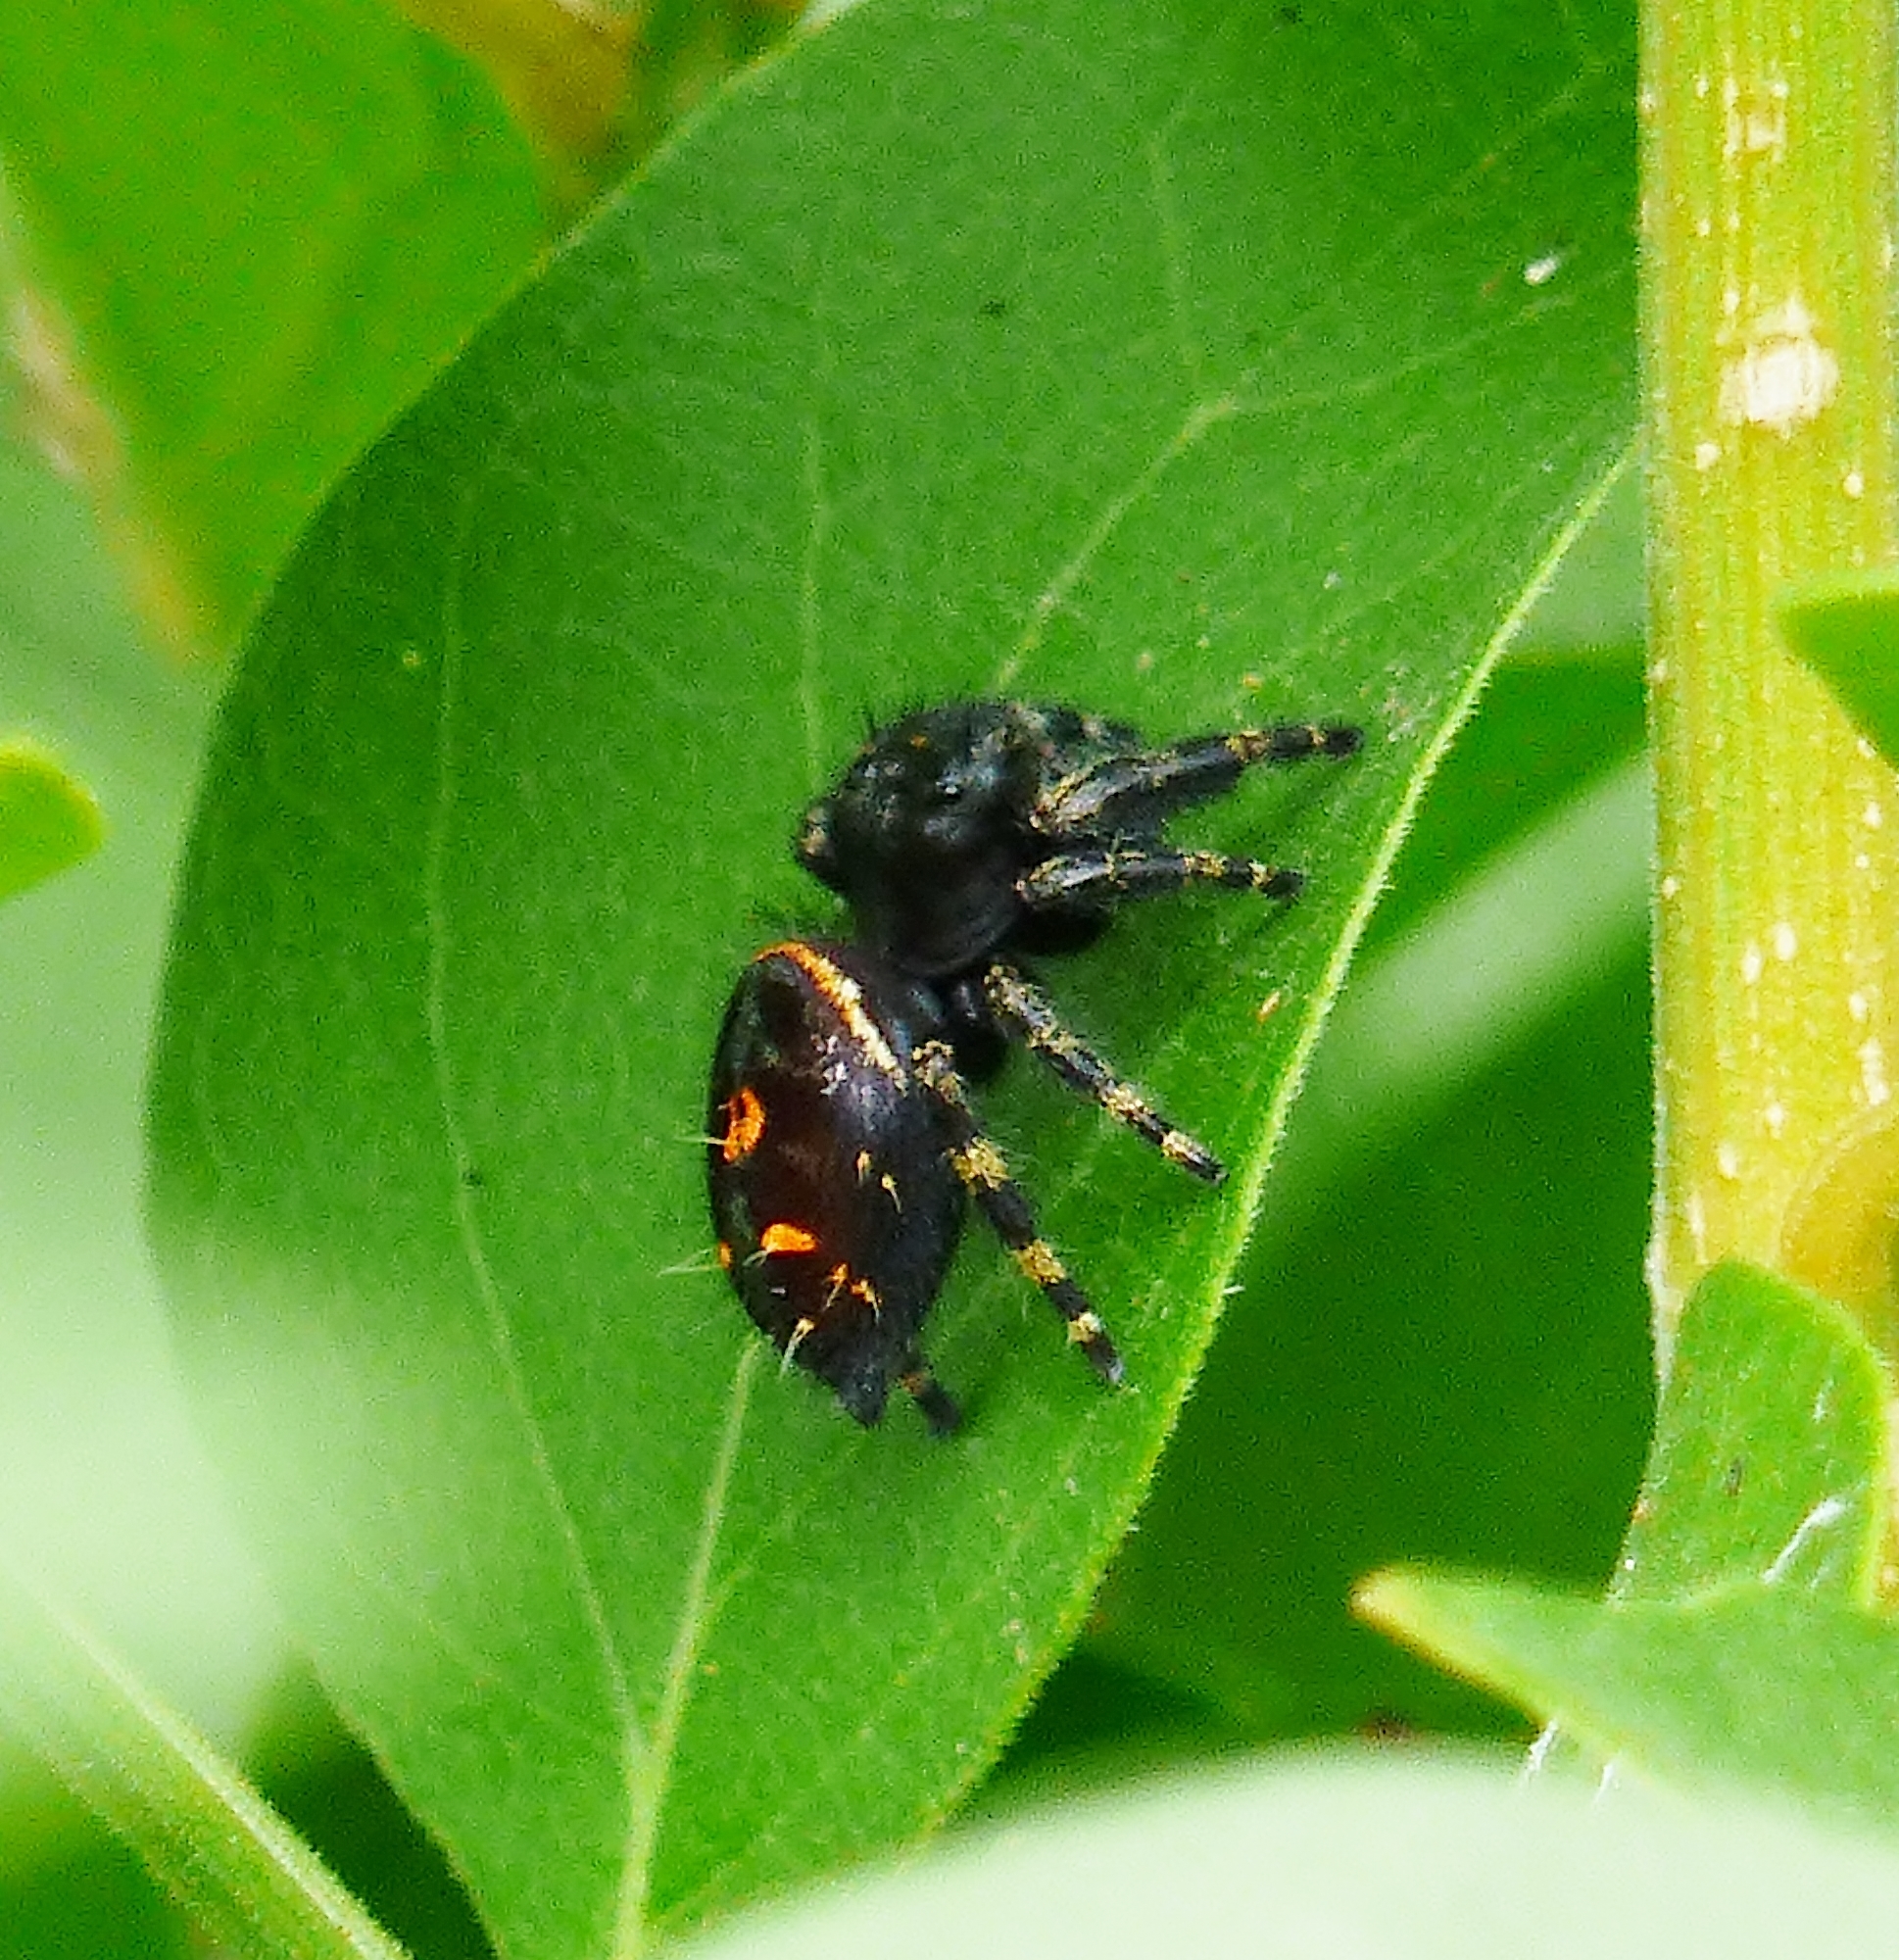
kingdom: Animalia
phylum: Arthropoda
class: Arachnida
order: Araneae
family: Salticidae
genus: Phidippus
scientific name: Phidippus audax
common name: Bold jumper
